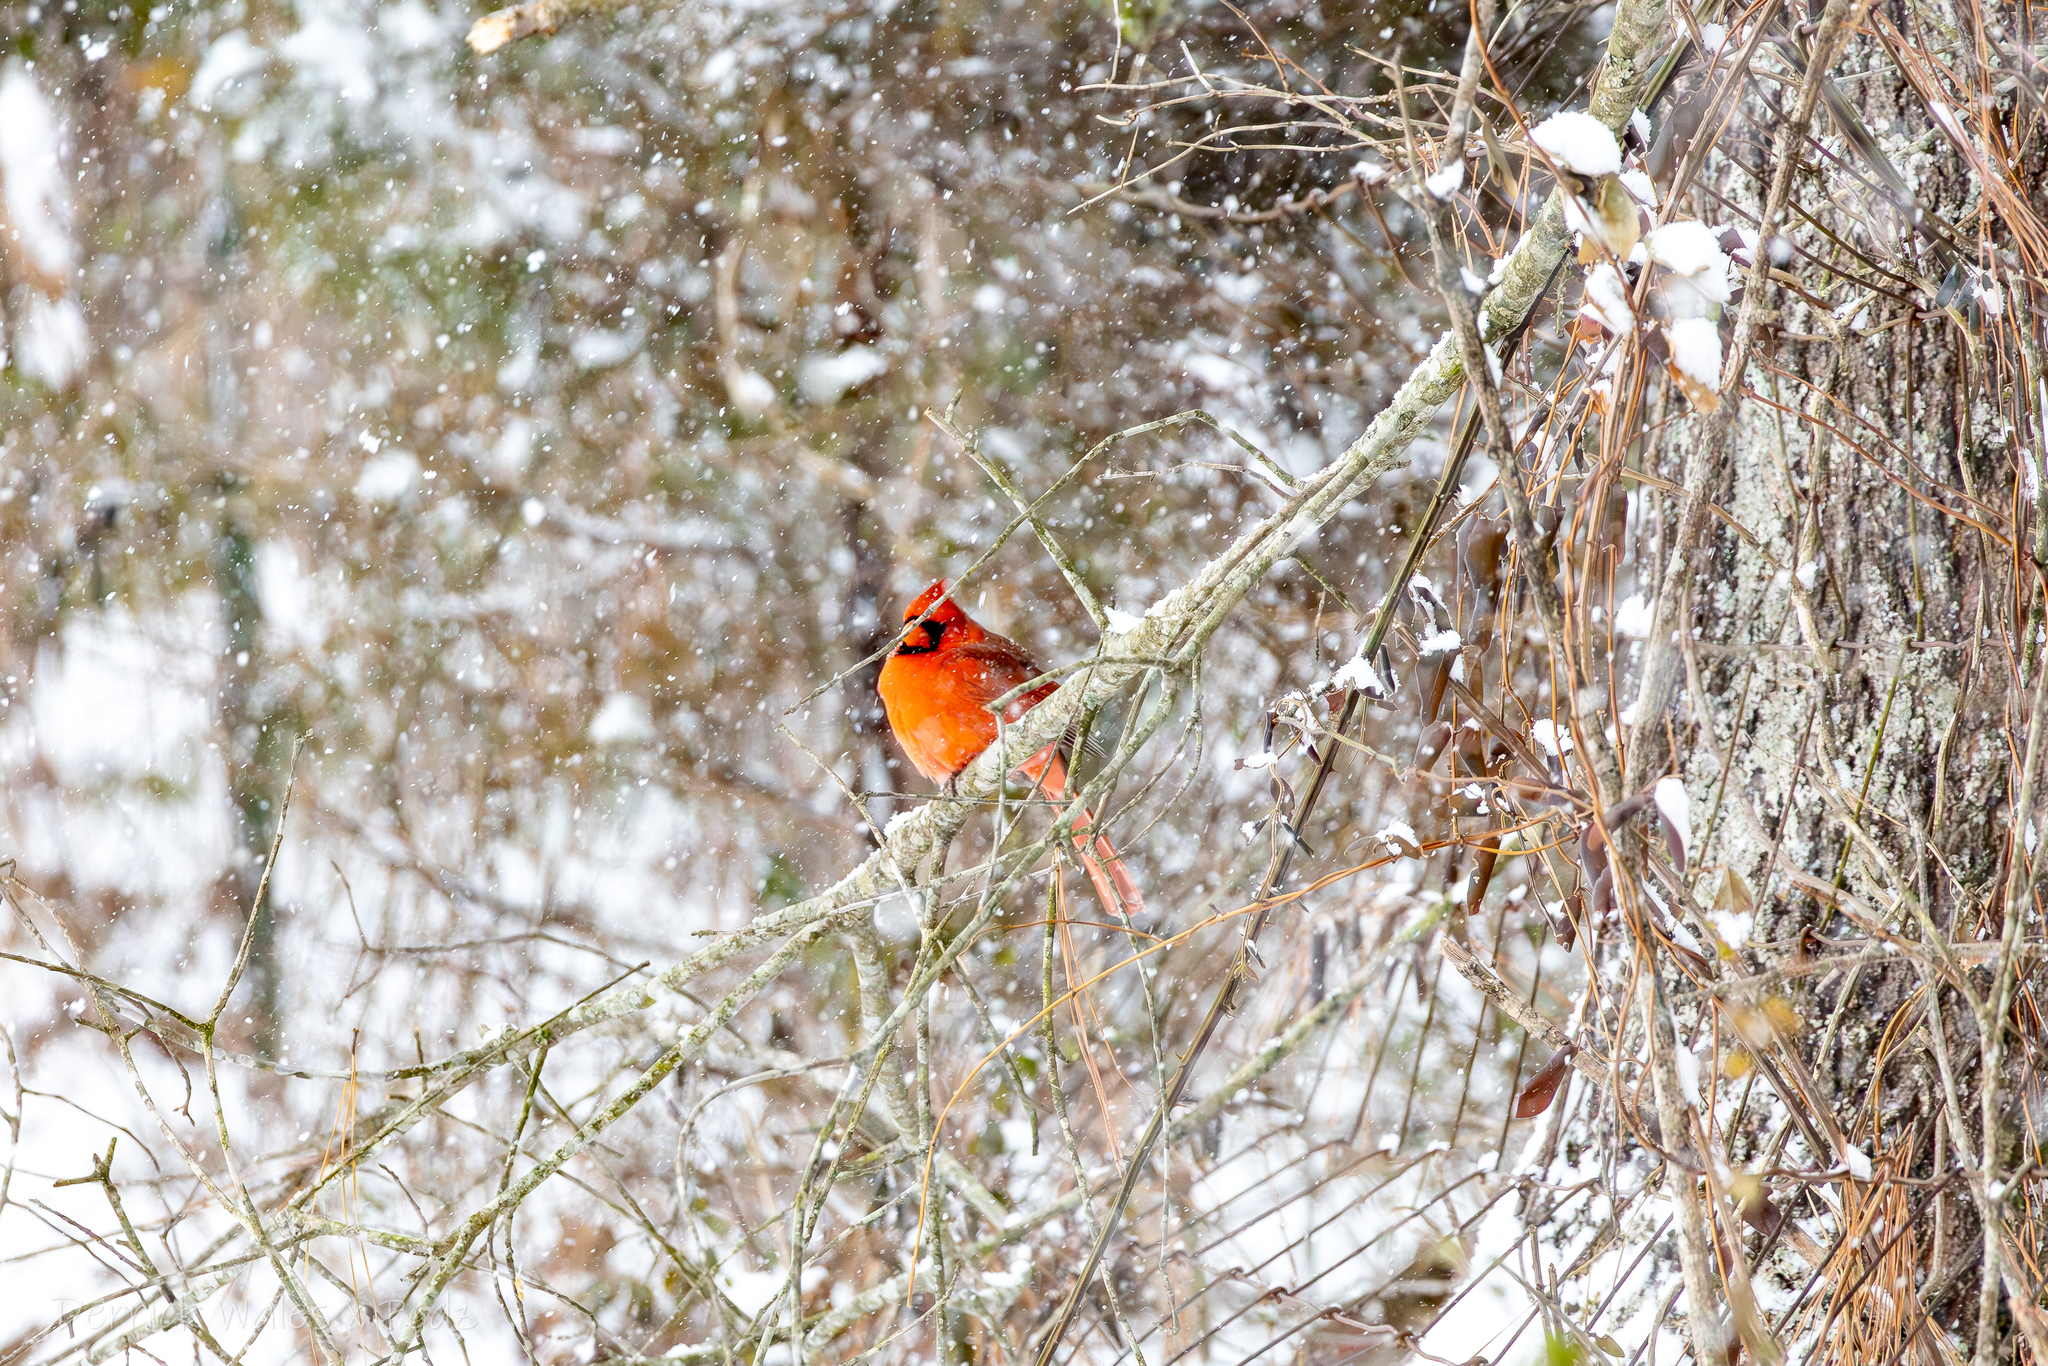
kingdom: Animalia
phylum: Chordata
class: Aves
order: Passeriformes
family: Cardinalidae
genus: Cardinalis
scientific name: Cardinalis cardinalis
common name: Northern cardinal
